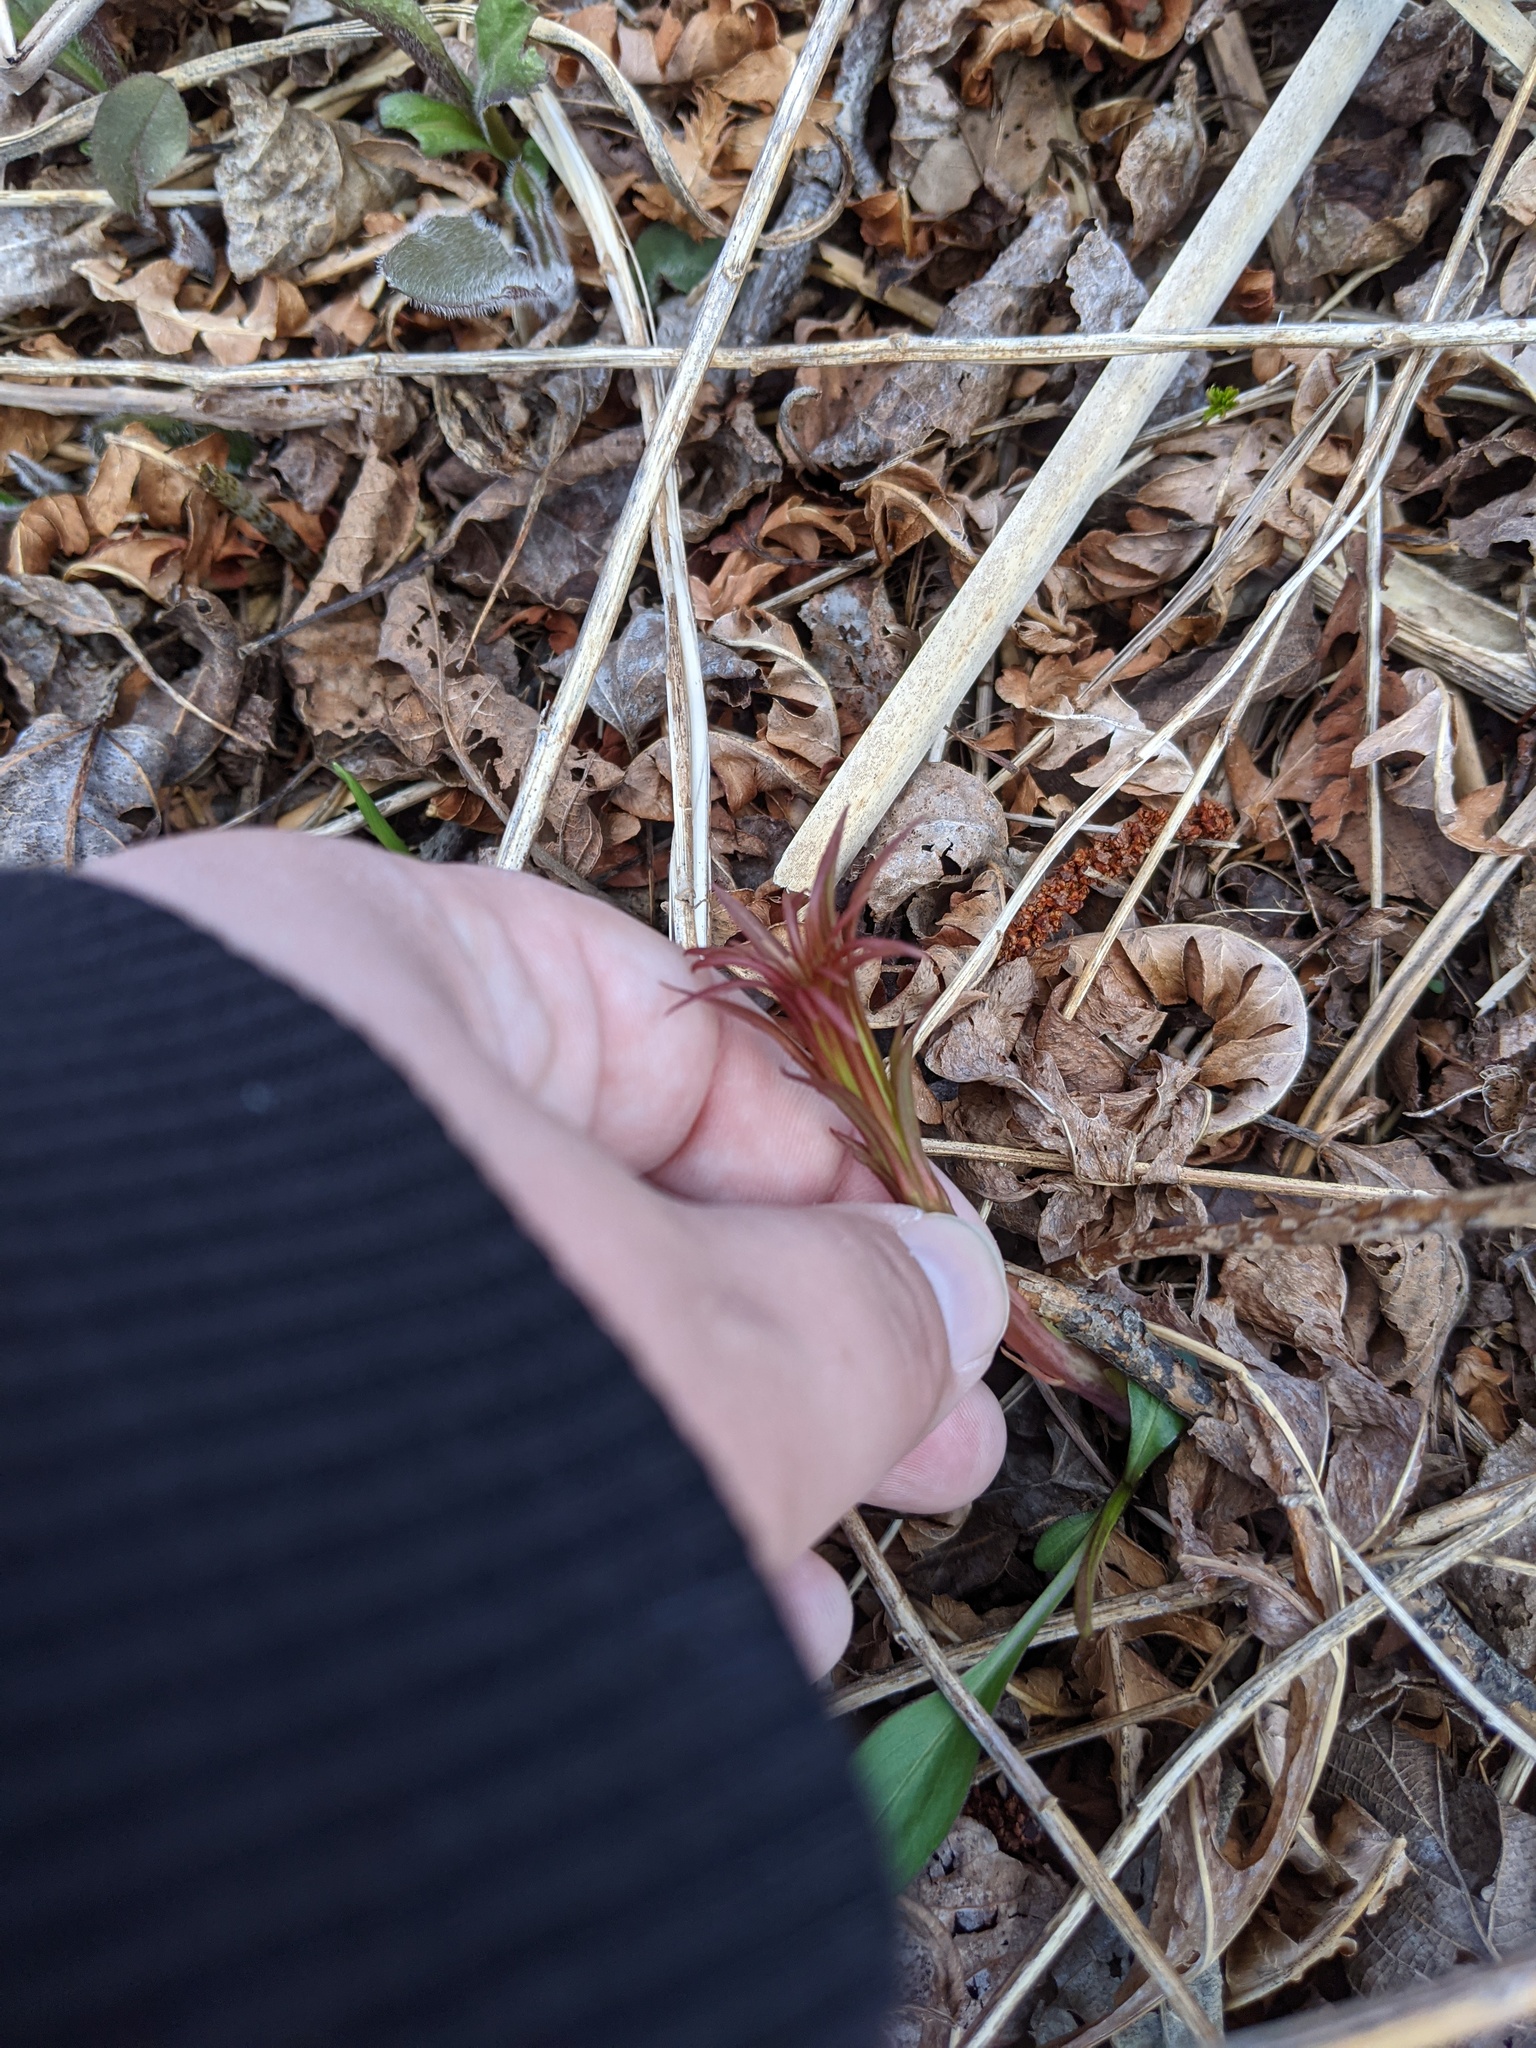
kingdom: Plantae
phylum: Tracheophyta
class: Magnoliopsida
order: Myrtales
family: Onagraceae
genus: Chamaenerion
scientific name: Chamaenerion angustifolium
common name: Fireweed
